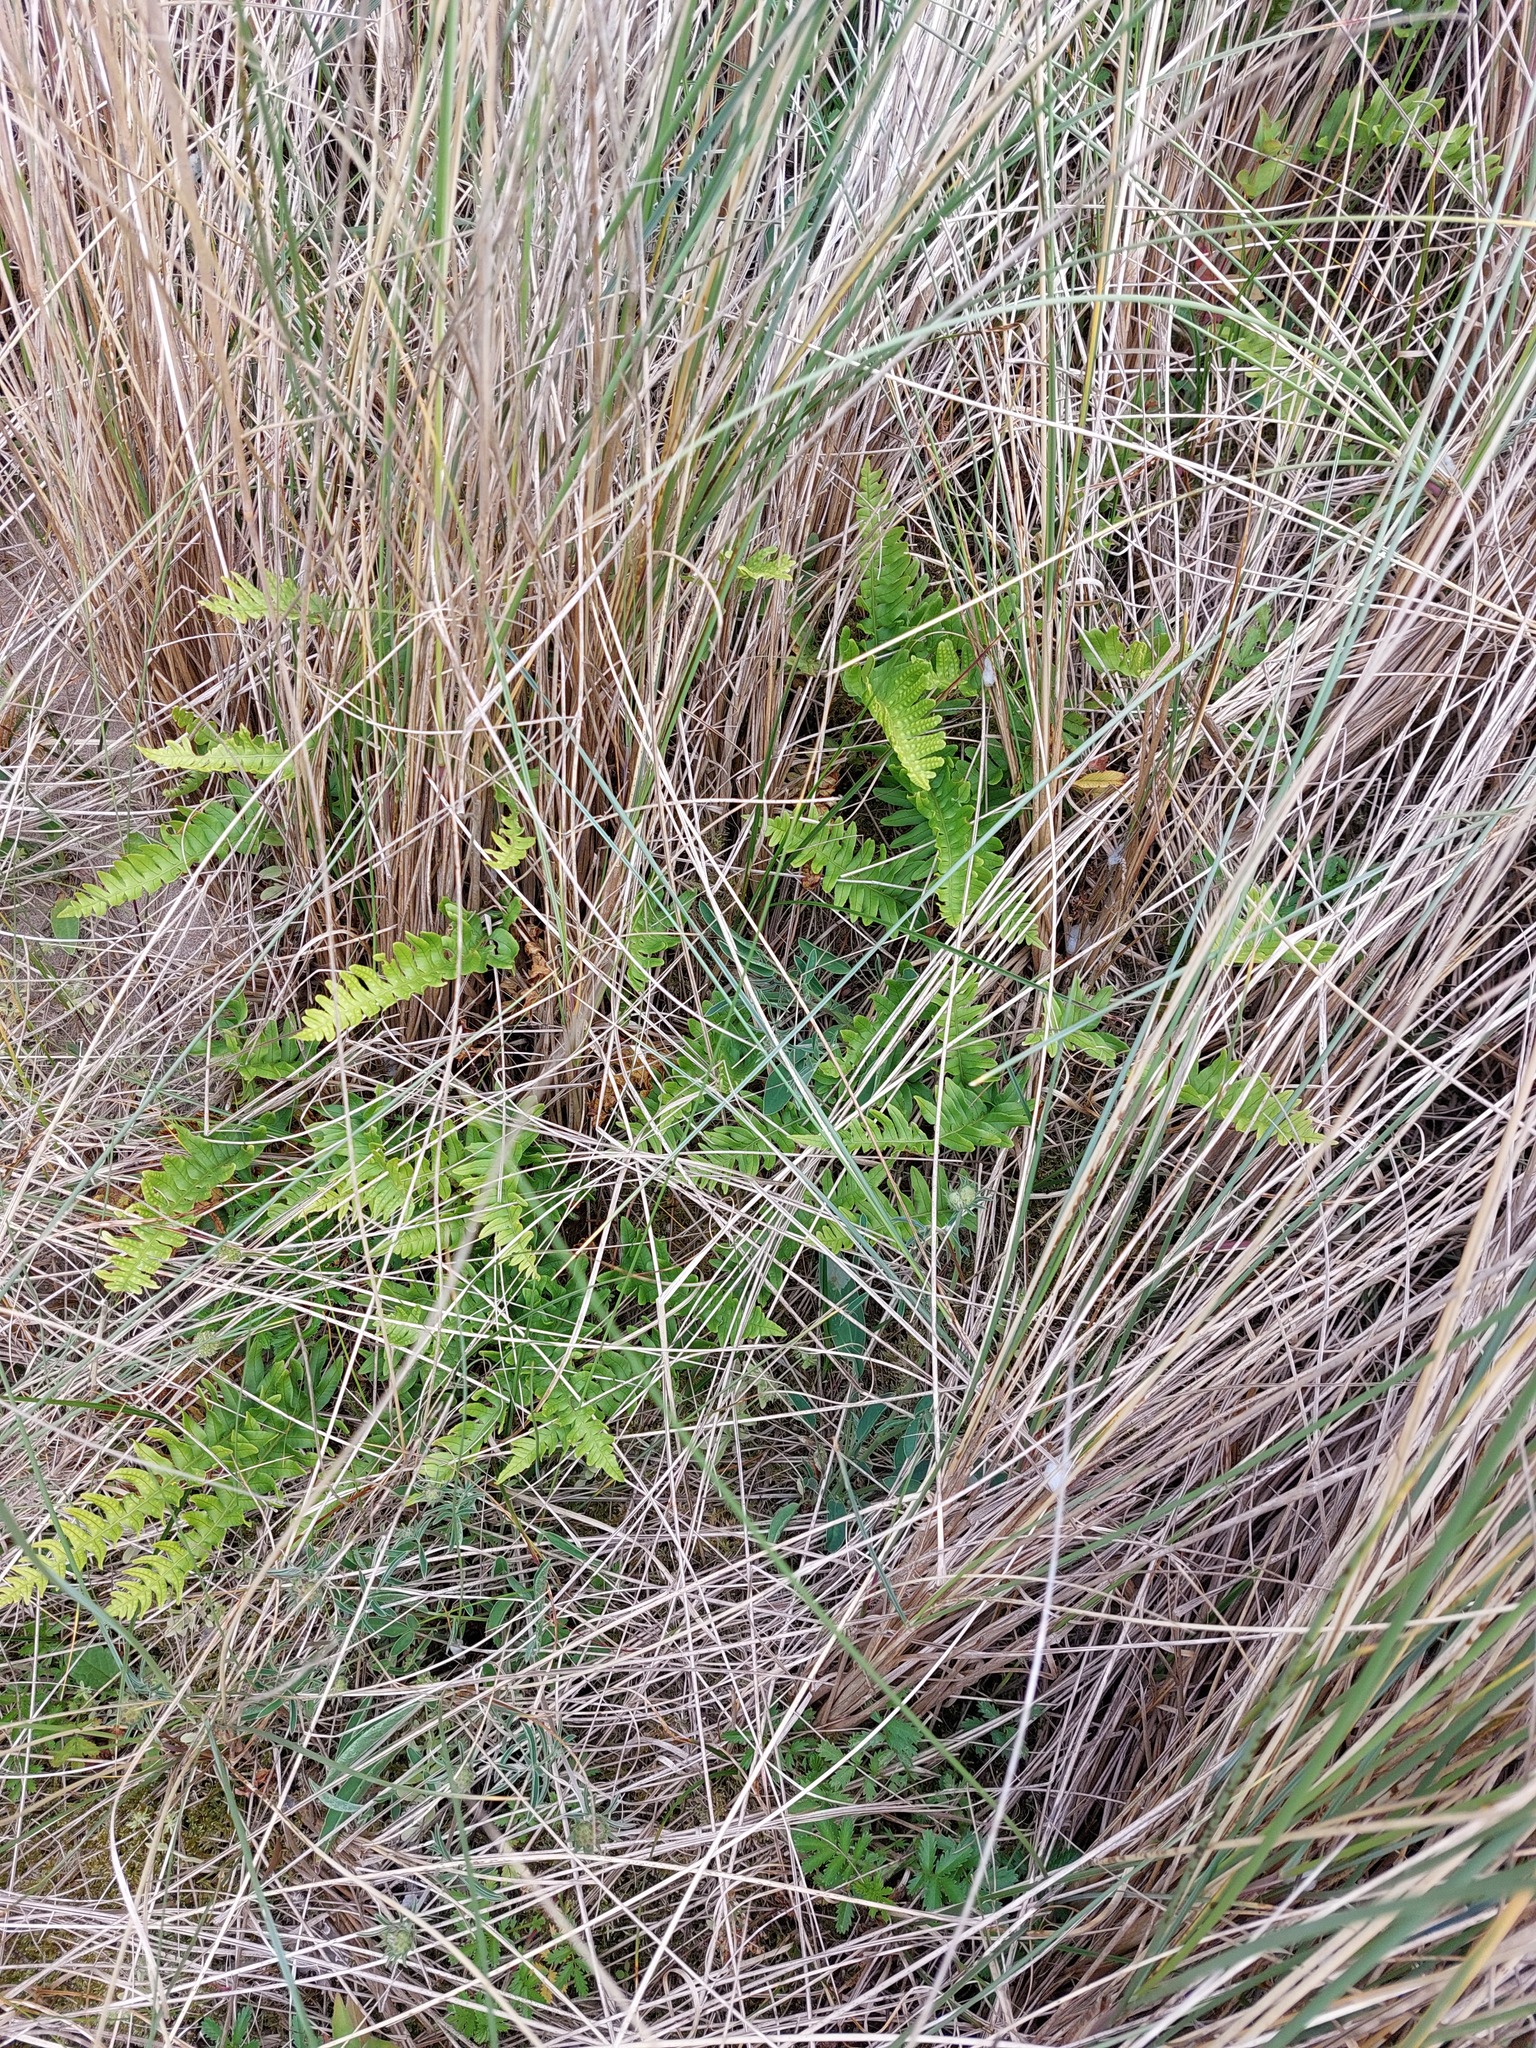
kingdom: Plantae
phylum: Tracheophyta
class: Polypodiopsida
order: Polypodiales
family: Polypodiaceae
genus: Polypodium
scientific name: Polypodium vulgare
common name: Common polypody
